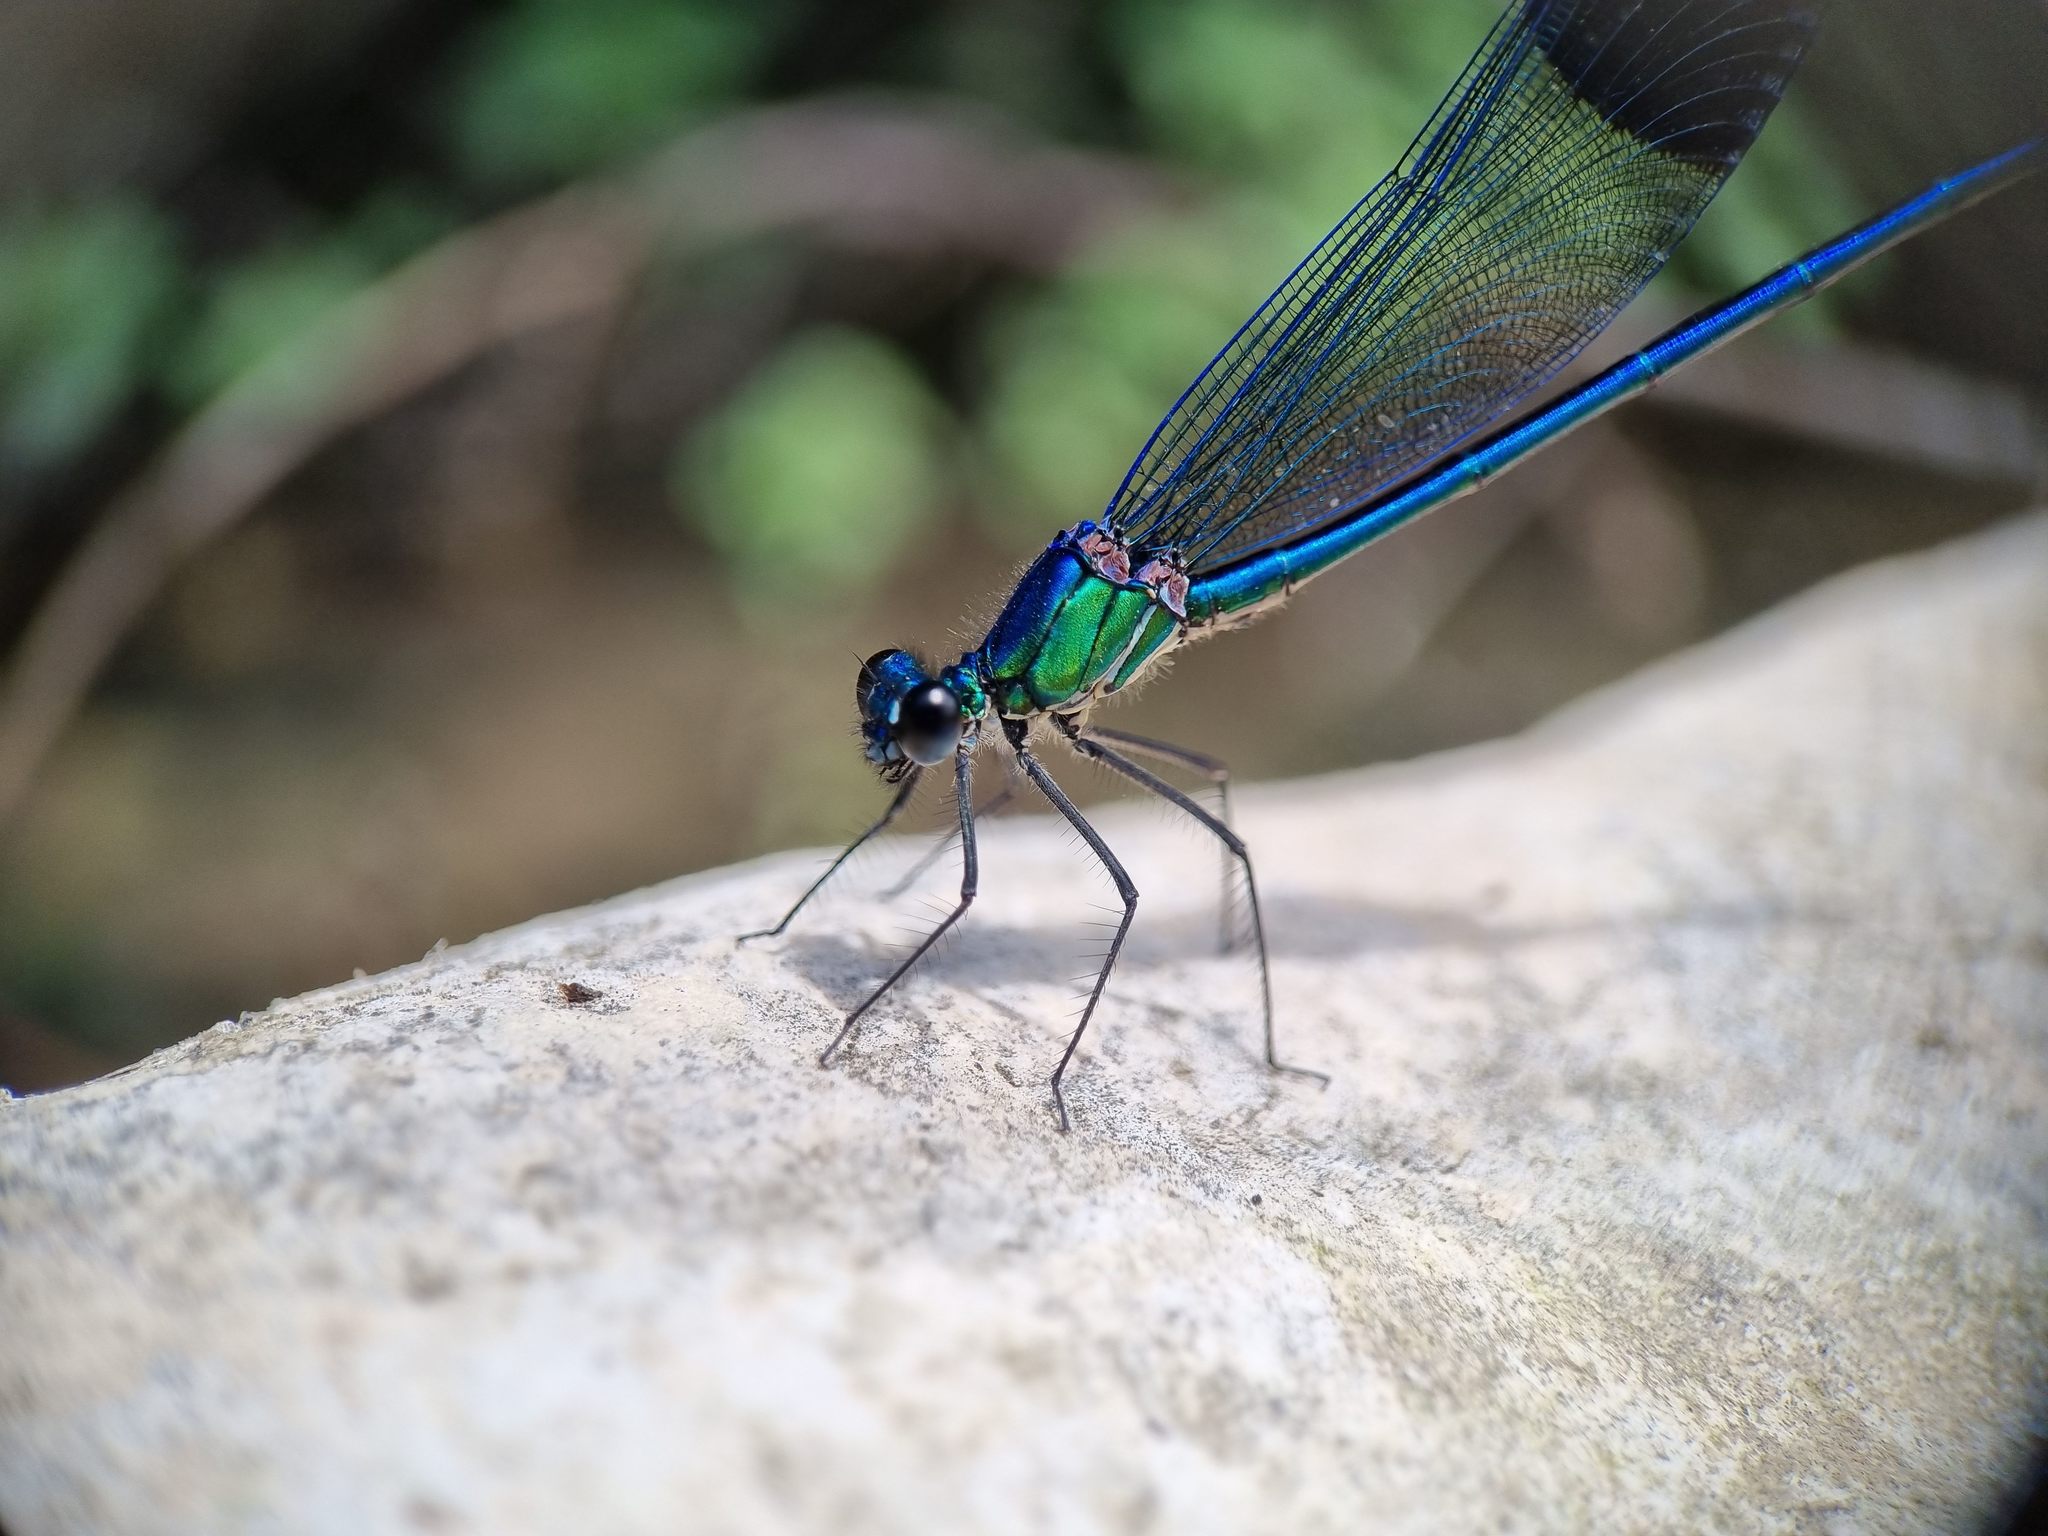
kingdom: Animalia
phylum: Arthropoda
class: Insecta
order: Odonata
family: Calopterygidae
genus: Calopteryx
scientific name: Calopteryx syriaca
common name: Syrian demoiselle
